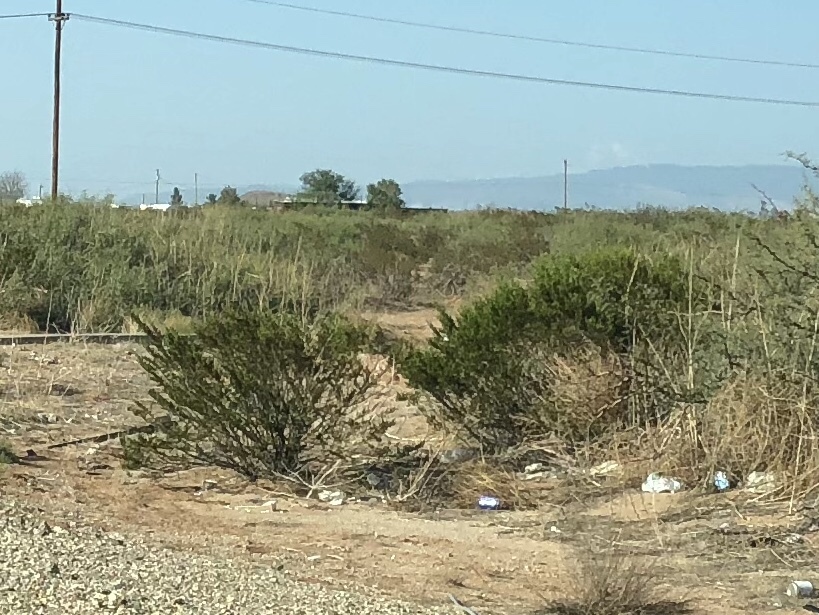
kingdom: Plantae
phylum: Tracheophyta
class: Magnoliopsida
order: Zygophyllales
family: Zygophyllaceae
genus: Larrea
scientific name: Larrea tridentata
